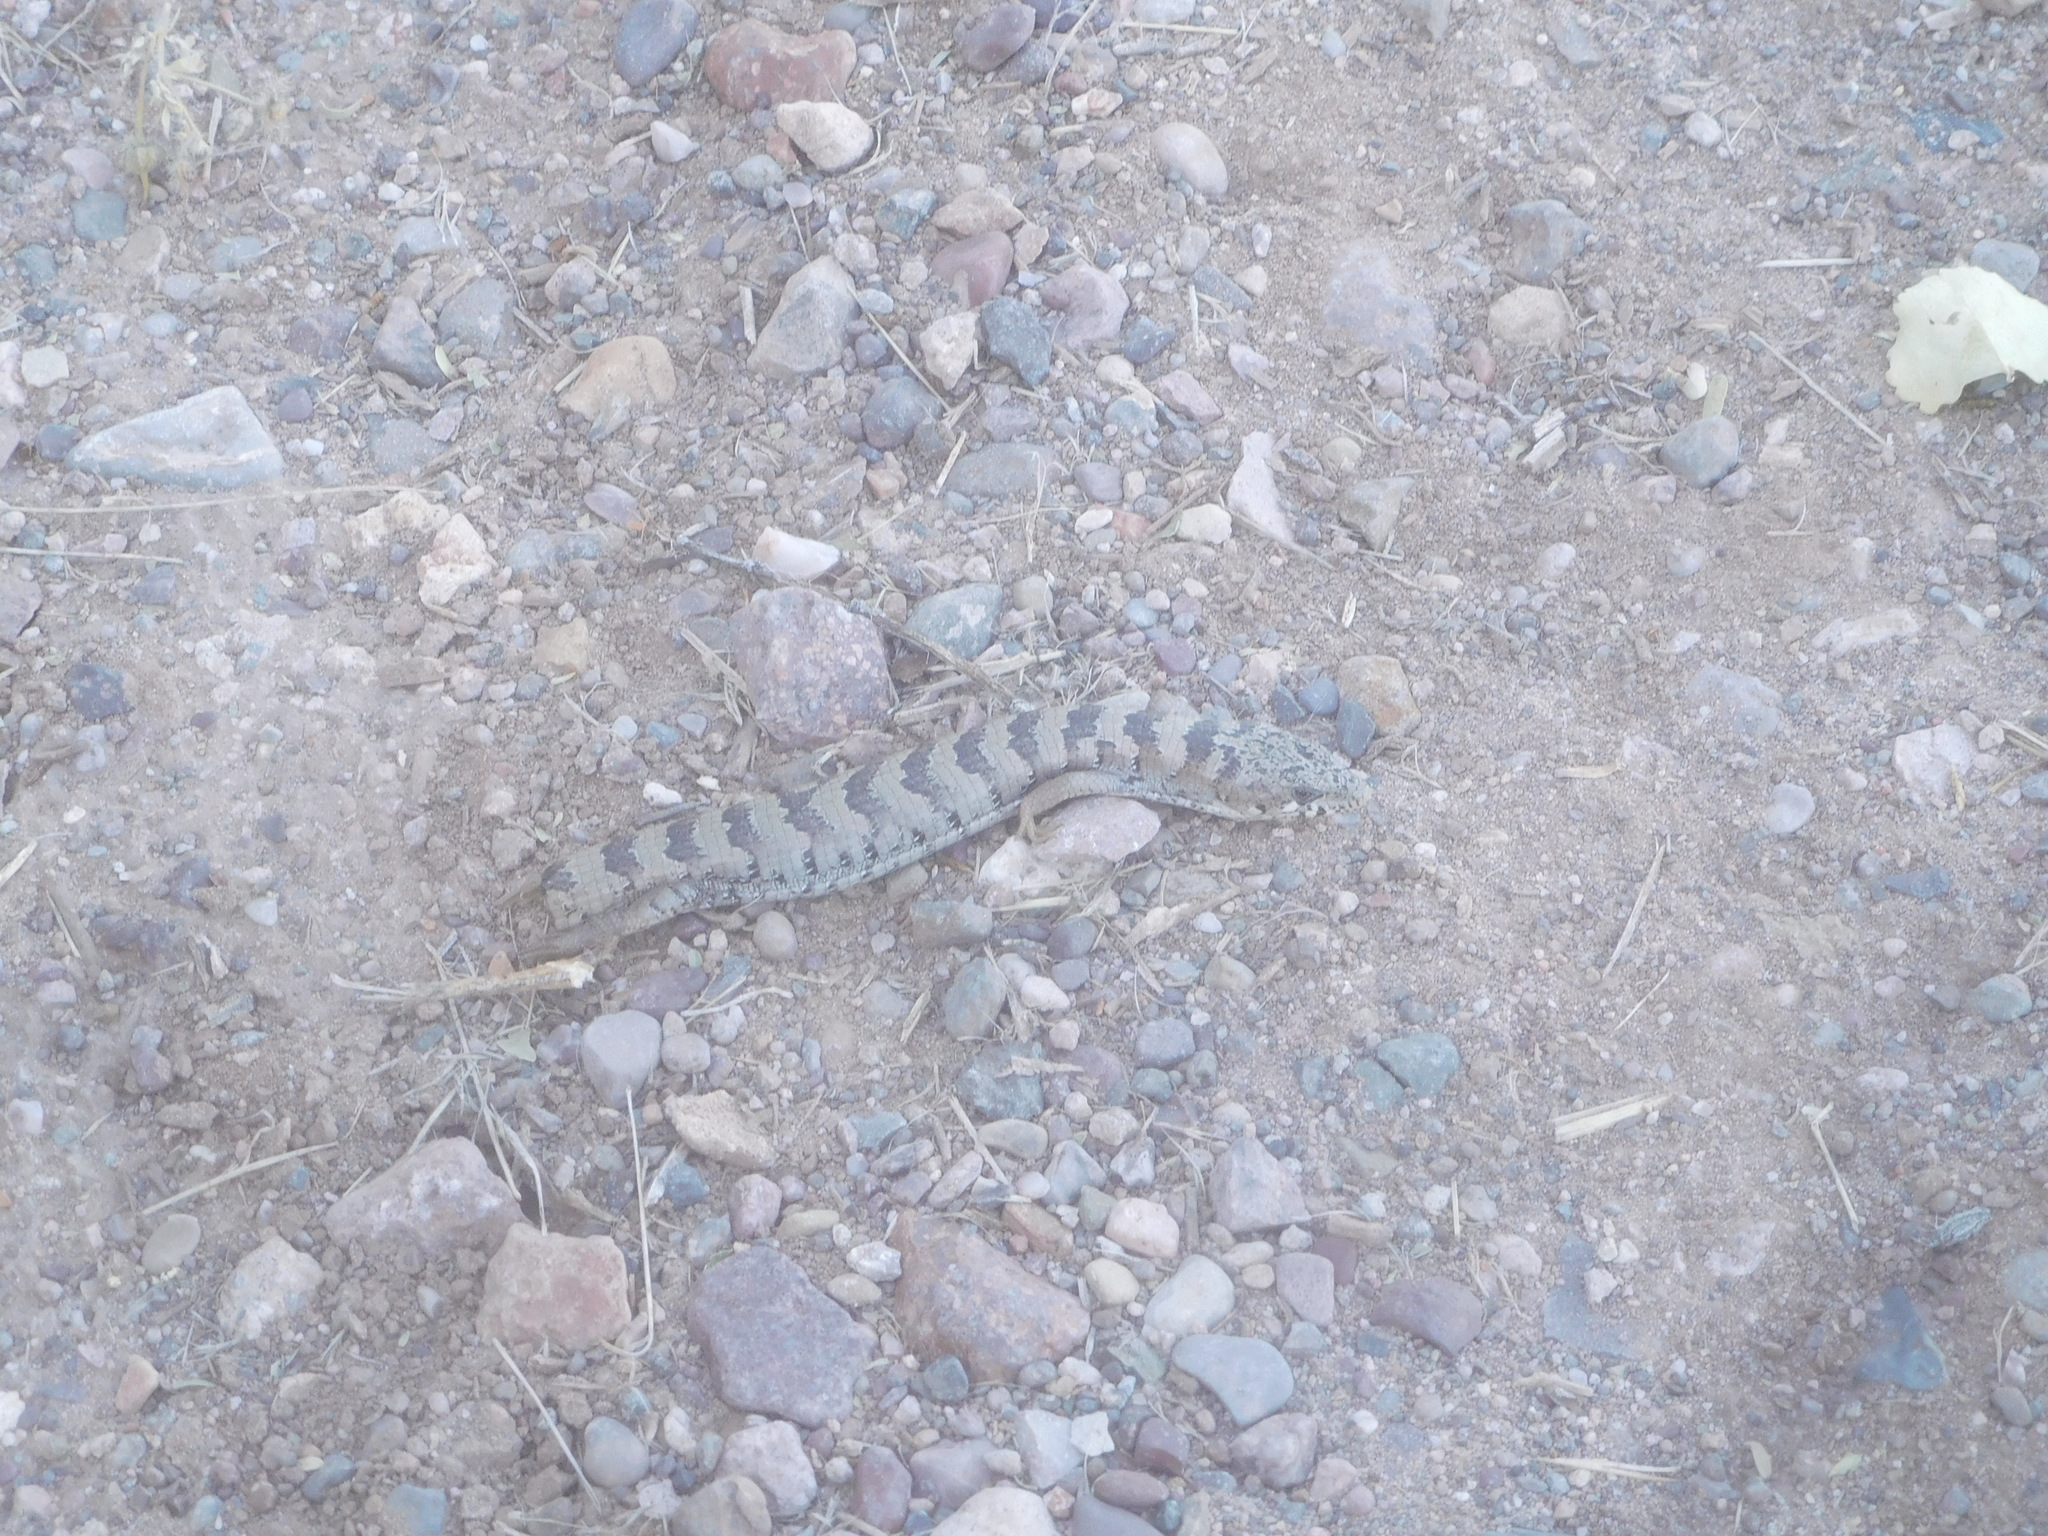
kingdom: Animalia
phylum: Chordata
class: Squamata
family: Anguidae
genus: Elgaria
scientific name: Elgaria kingii
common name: Madrean alligator lizard
